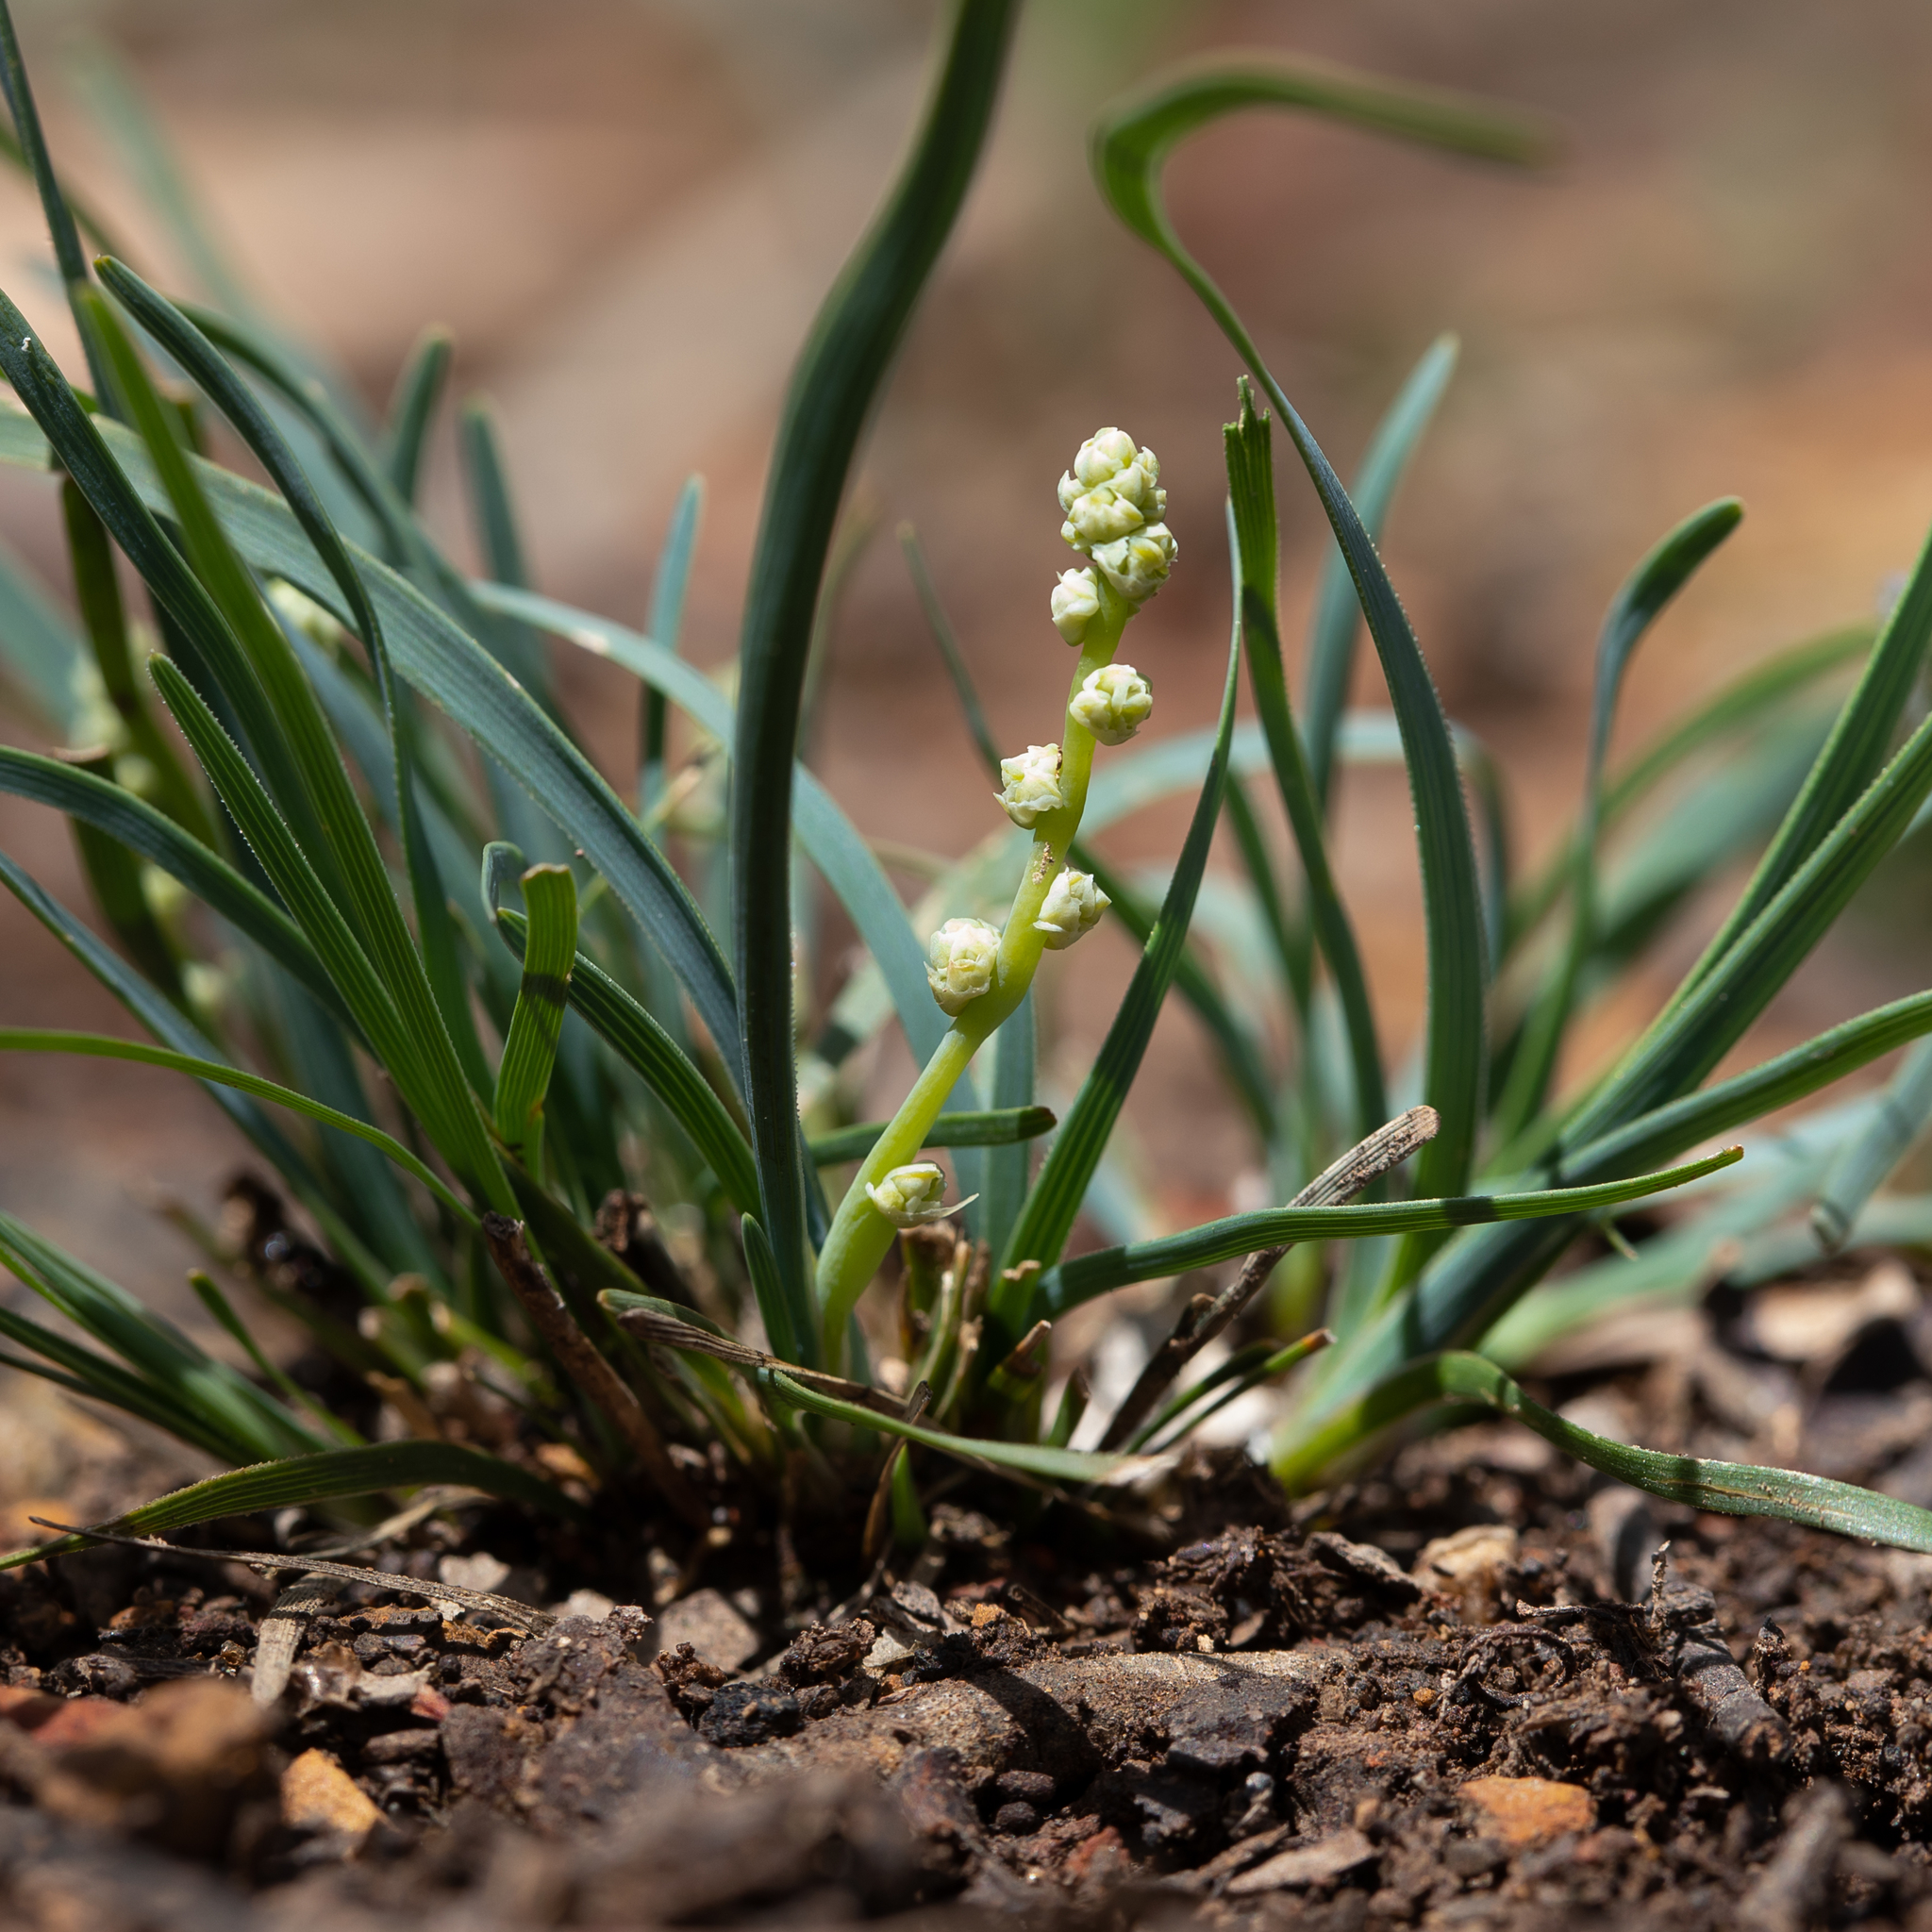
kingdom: Plantae
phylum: Tracheophyta
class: Liliopsida
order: Asparagales
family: Asparagaceae
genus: Lomandra
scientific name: Lomandra nana
